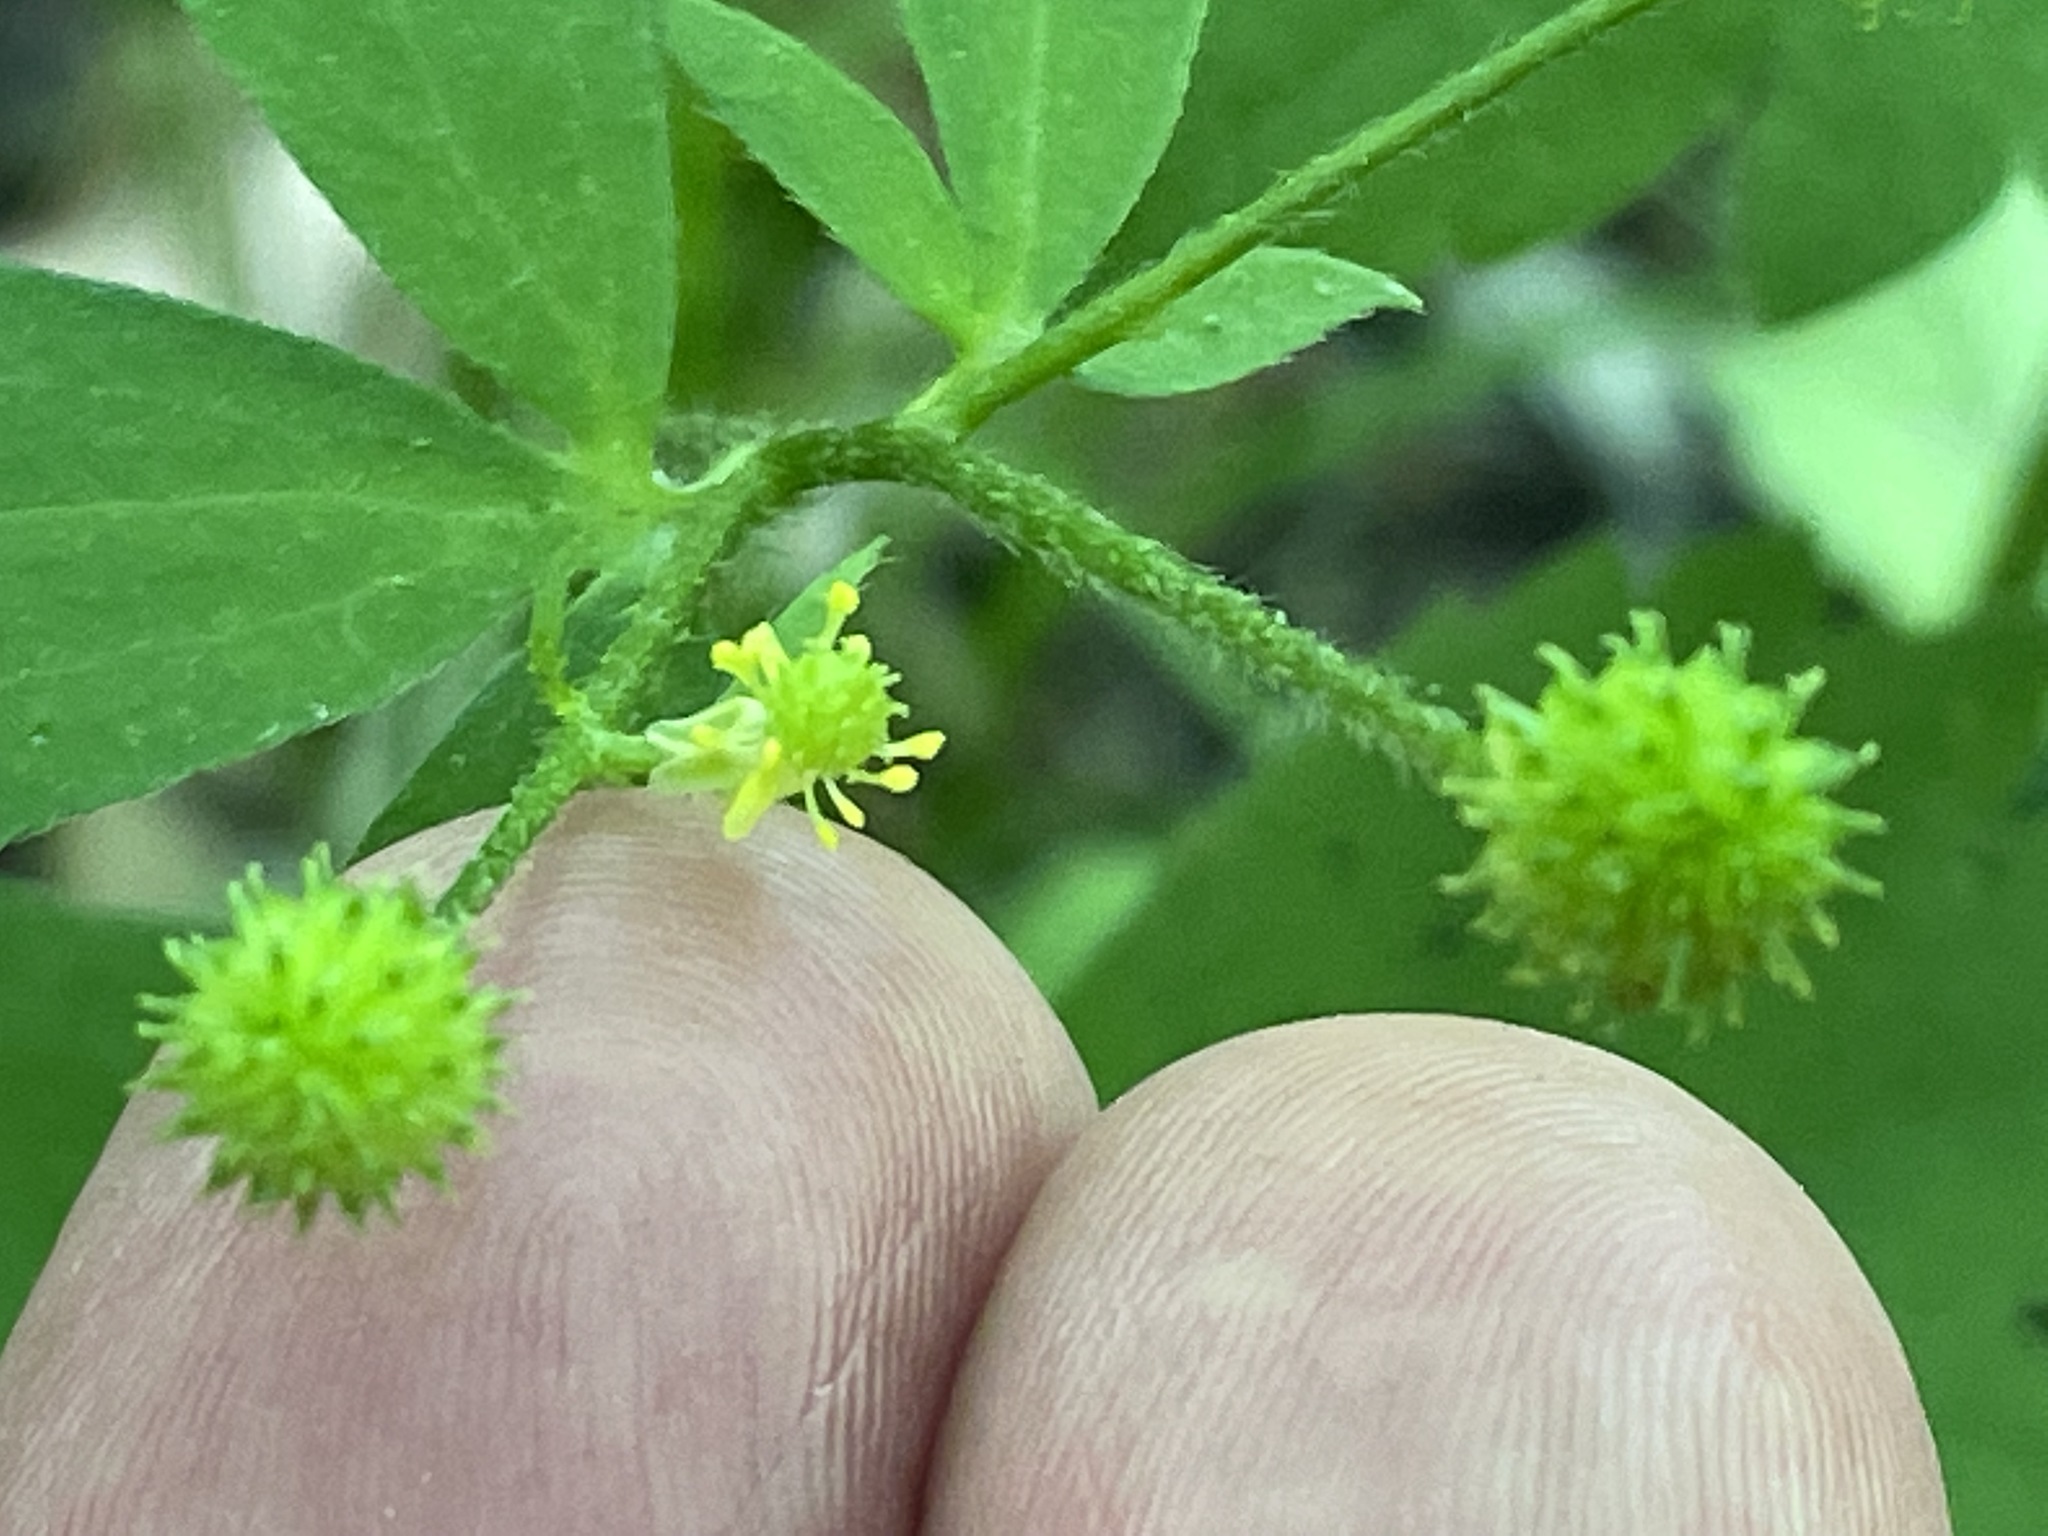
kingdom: Plantae
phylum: Tracheophyta
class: Magnoliopsida
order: Ranunculales
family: Ranunculaceae
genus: Ranunculus
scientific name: Ranunculus recurvatus
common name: Blisterwort
